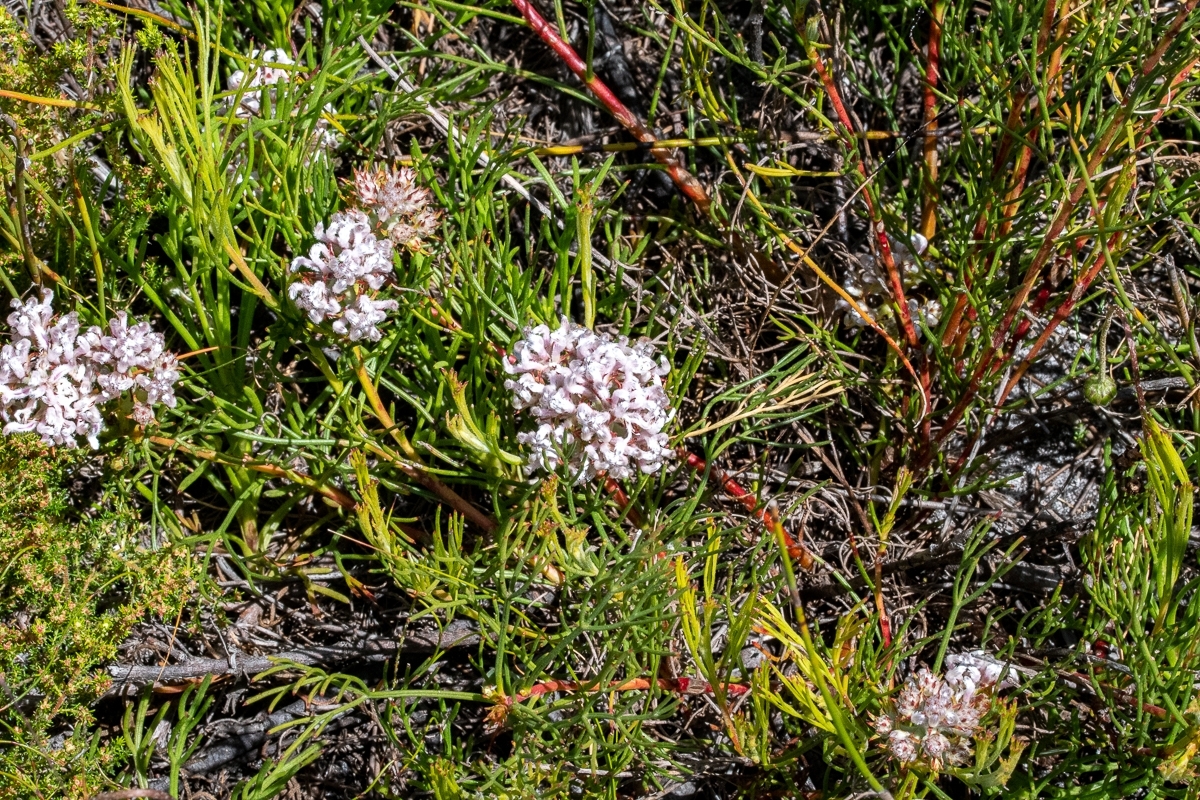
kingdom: Plantae
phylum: Tracheophyta
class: Magnoliopsida
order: Proteales
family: Proteaceae
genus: Serruria
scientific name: Serruria rubricaulis
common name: Red-stem spiderhead
